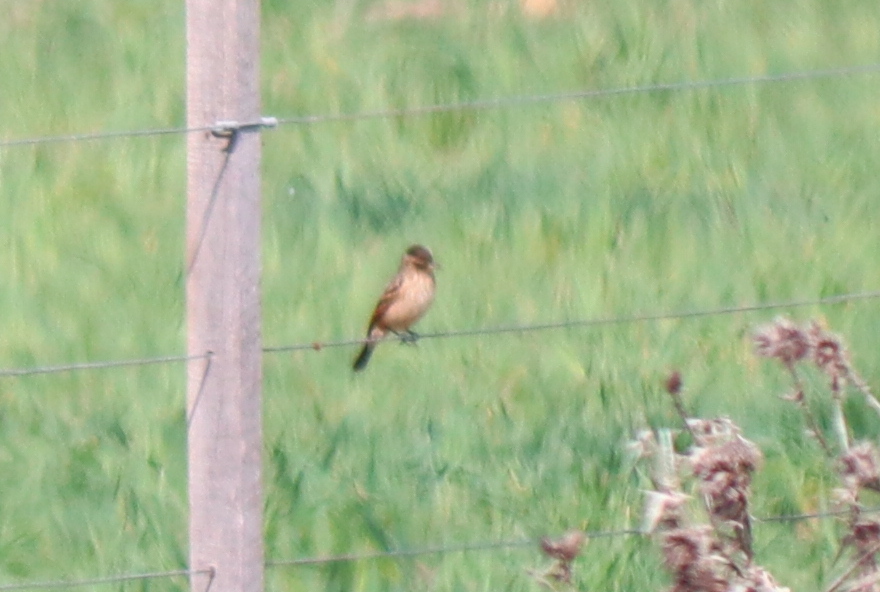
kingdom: Animalia
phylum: Chordata
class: Aves
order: Passeriformes
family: Tyrannidae
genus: Hymenops
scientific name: Hymenops perspicillatus
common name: Spectacled tyrant
